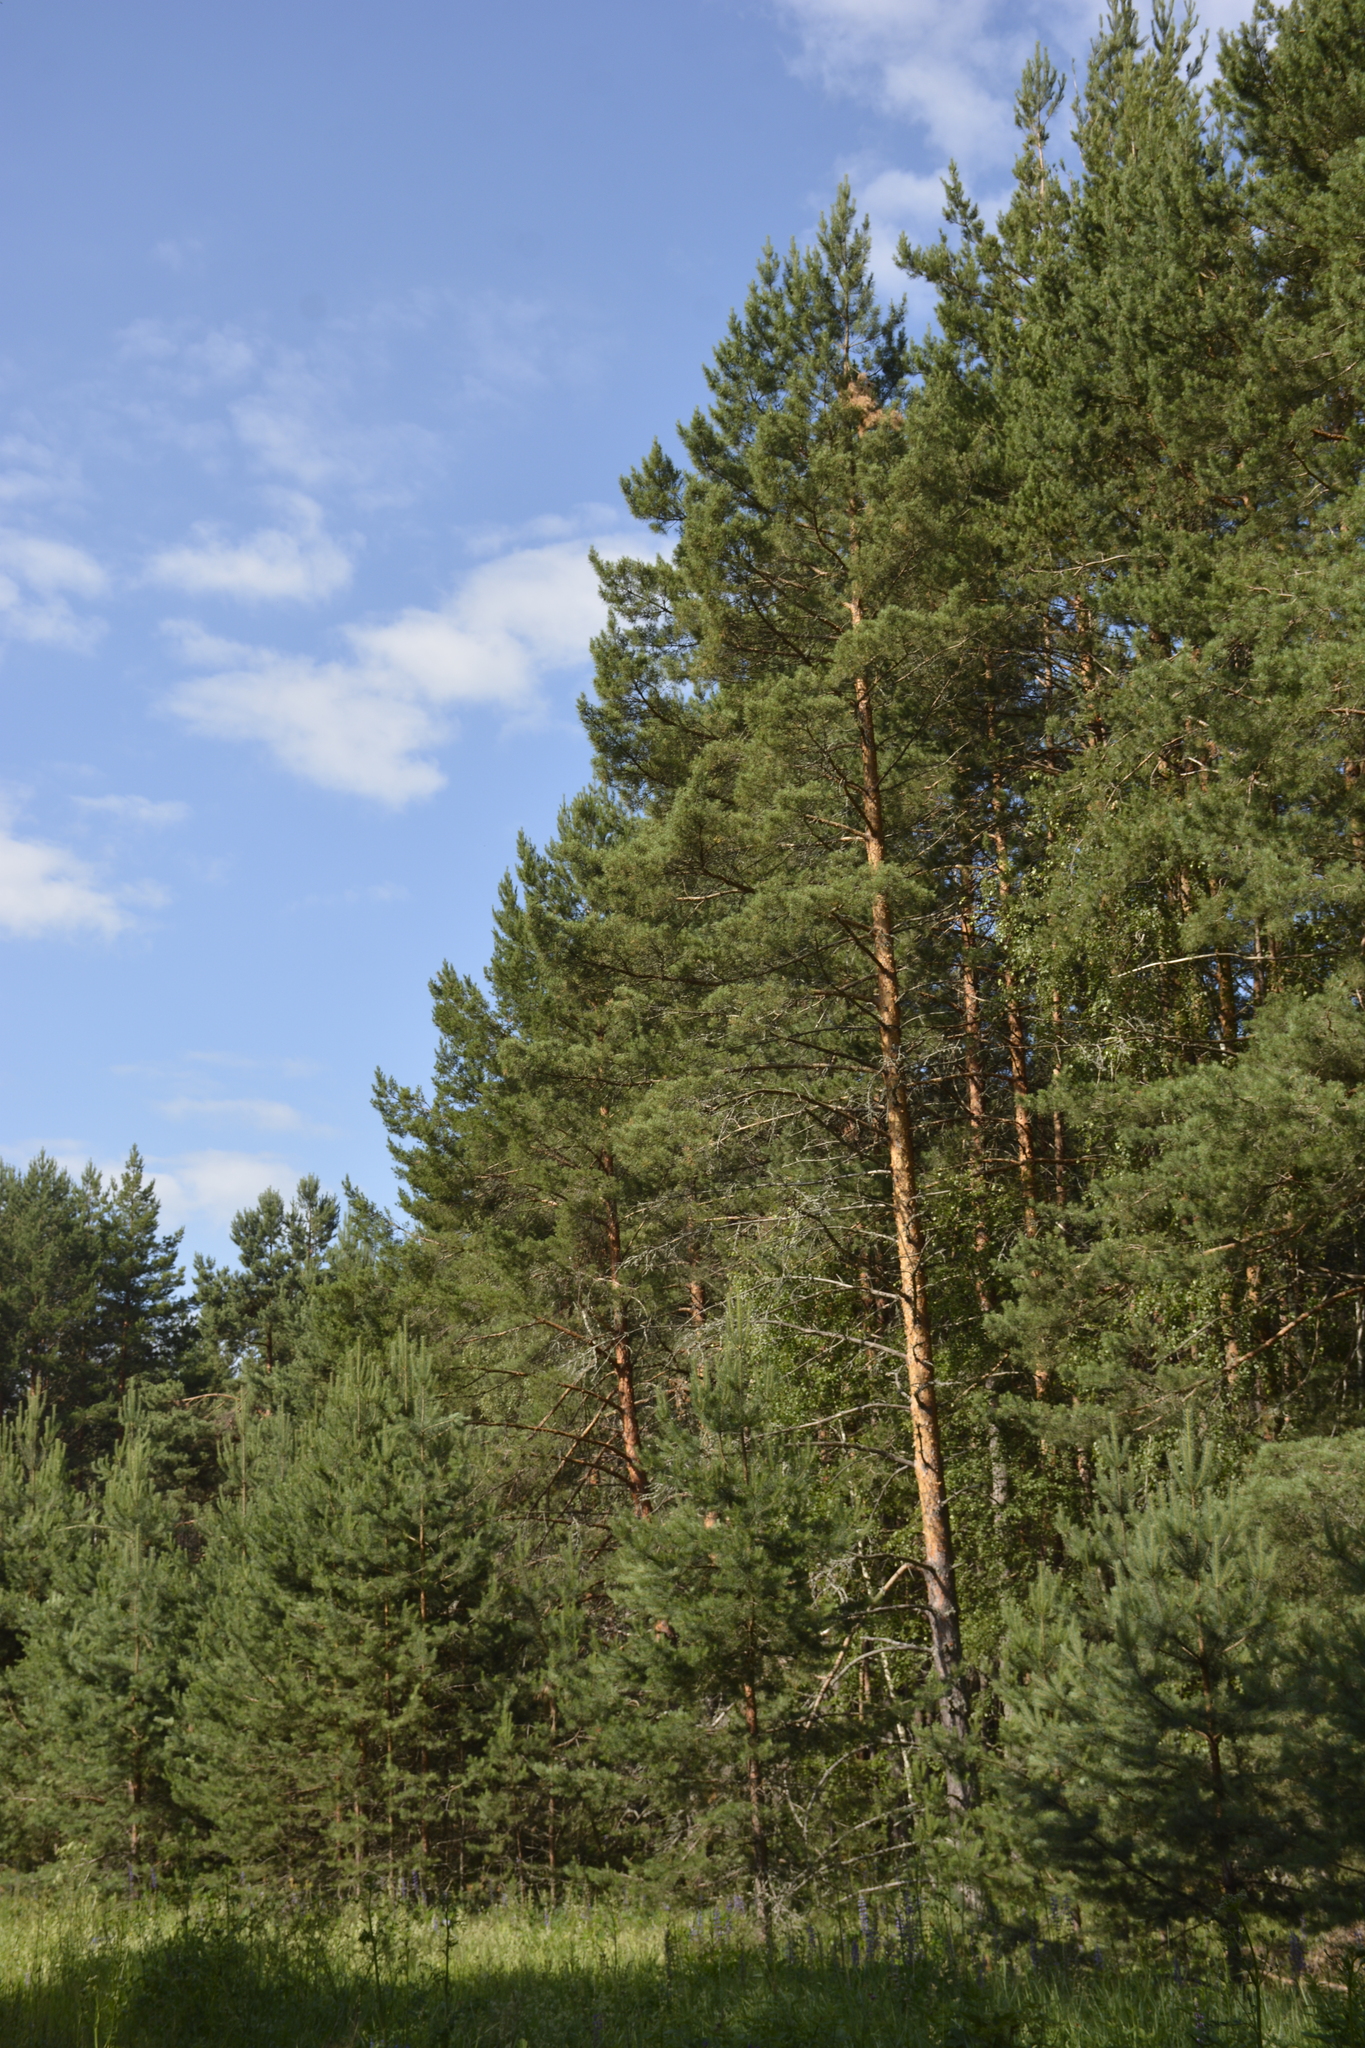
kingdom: Plantae
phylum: Tracheophyta
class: Pinopsida
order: Pinales
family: Pinaceae
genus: Pinus
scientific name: Pinus sylvestris
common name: Scots pine
